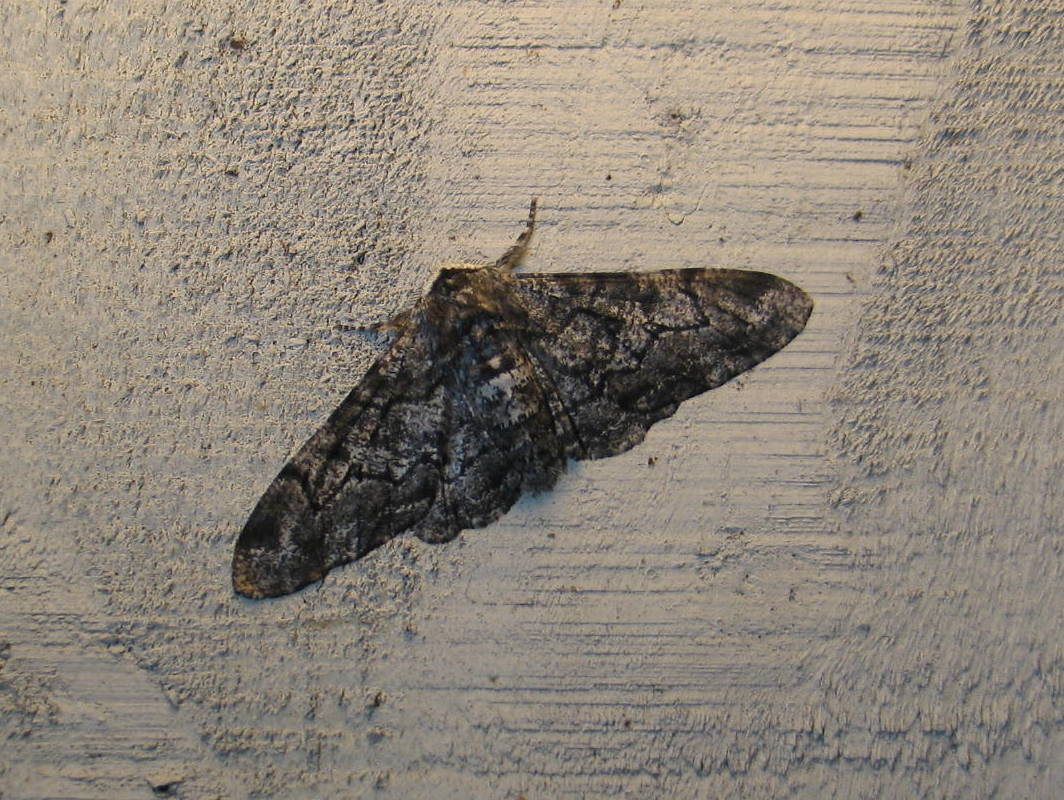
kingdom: Animalia
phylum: Arthropoda
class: Insecta
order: Lepidoptera
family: Geometridae
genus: Biston
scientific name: Biston betularia
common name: Peppered moth
